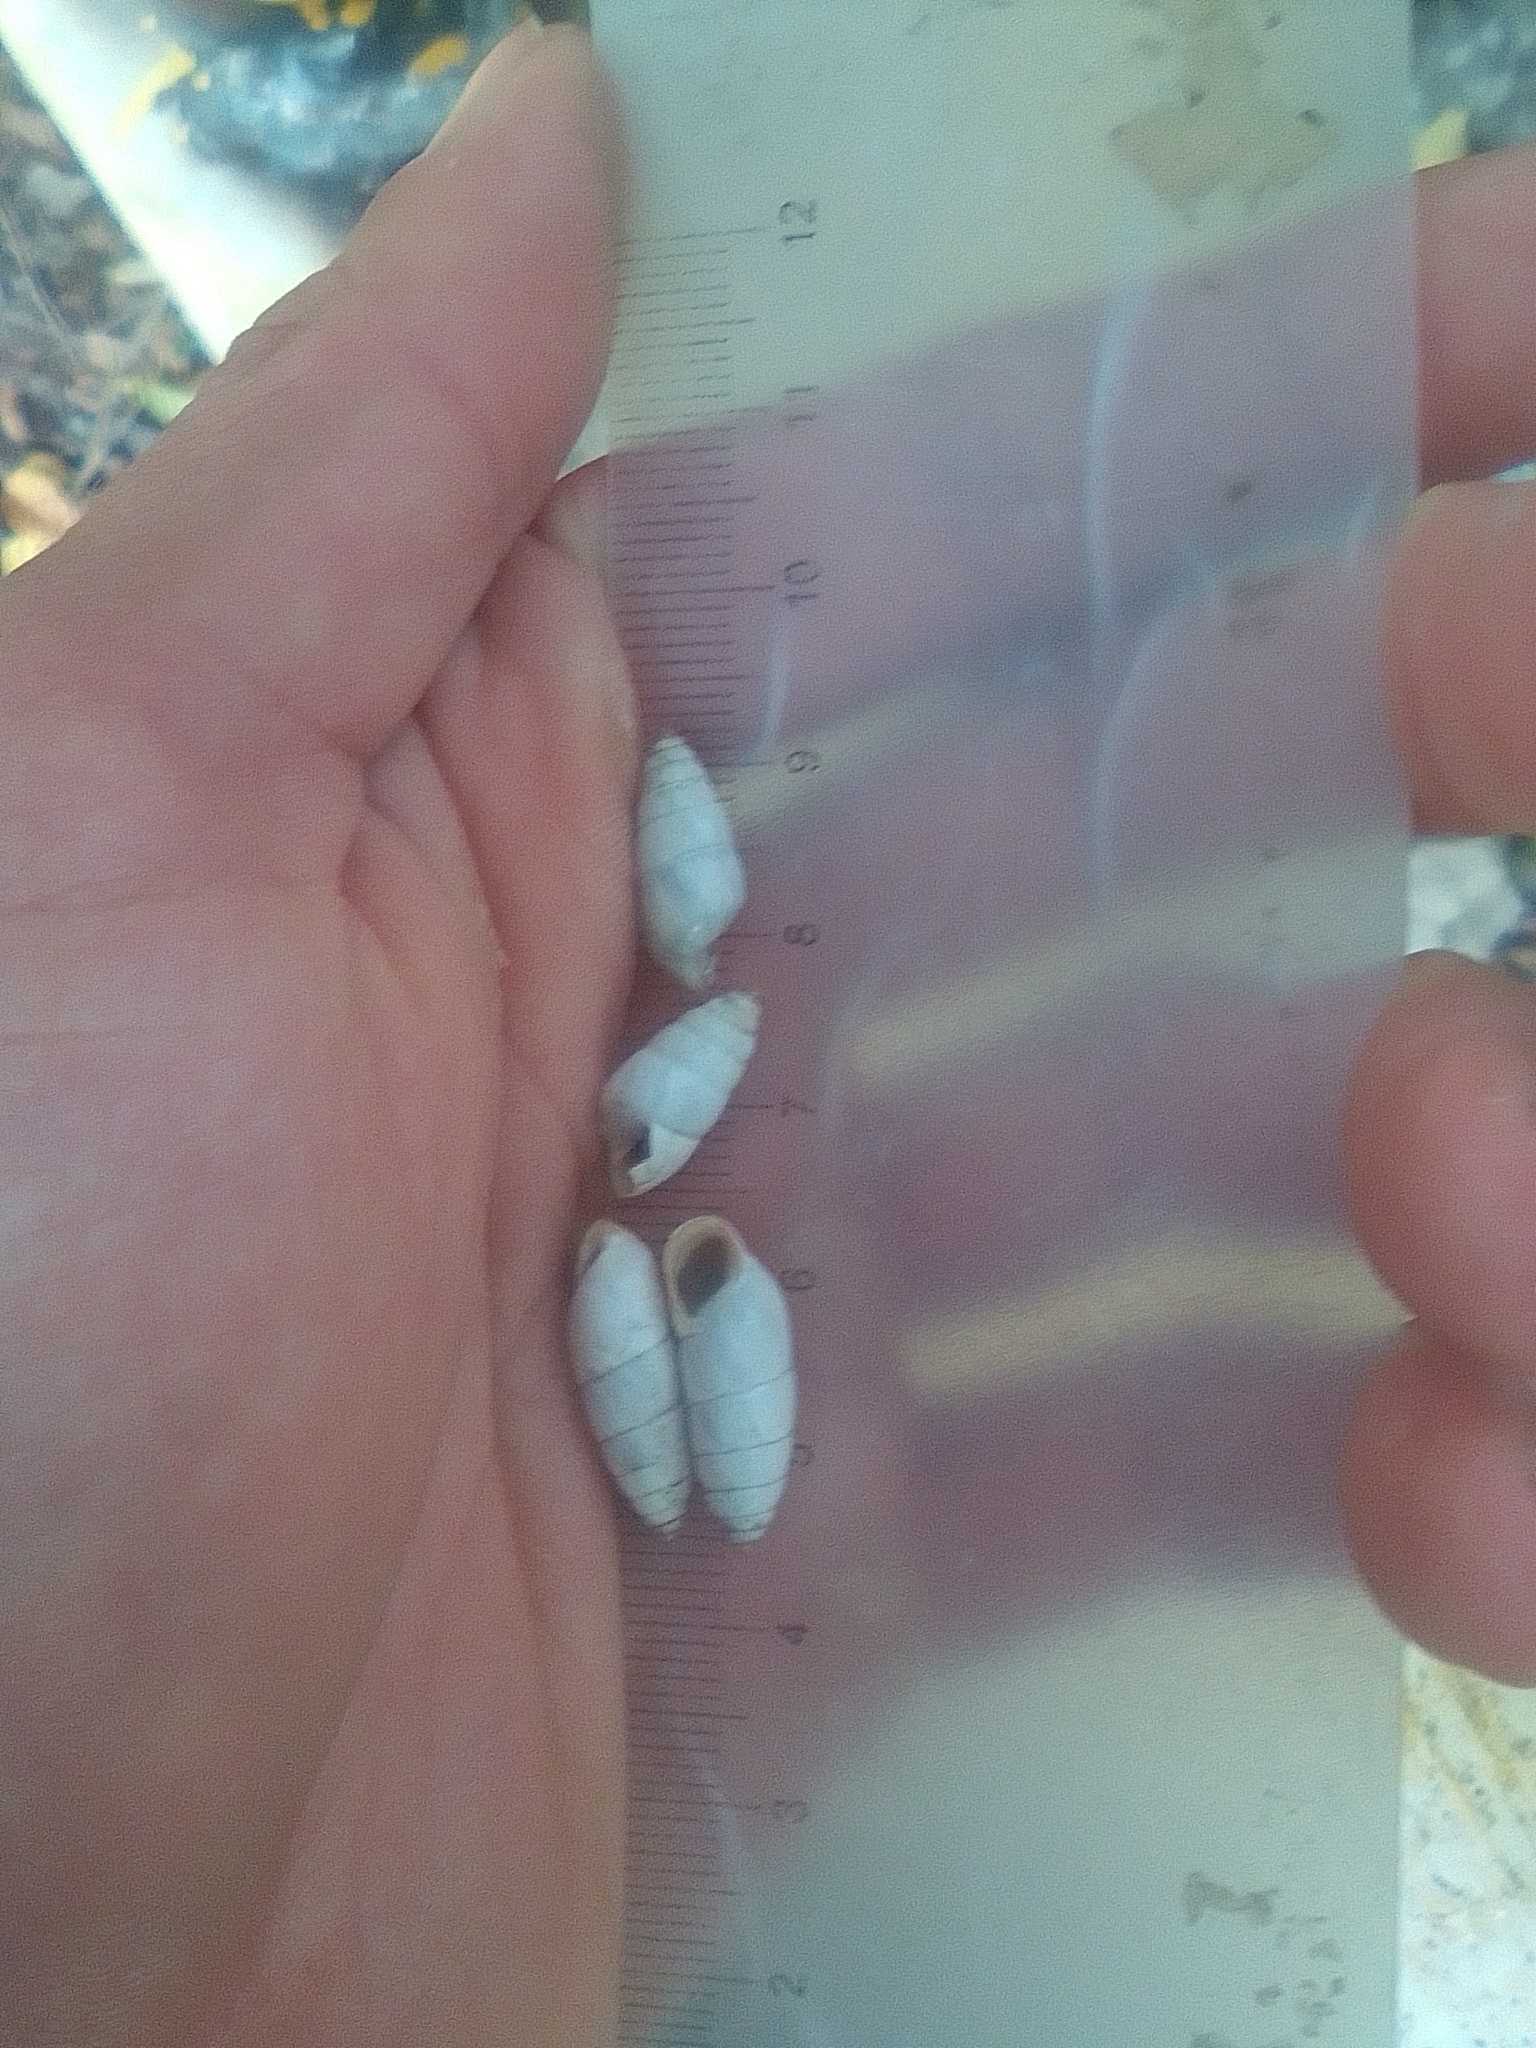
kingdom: Animalia
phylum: Mollusca
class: Gastropoda
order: Stylommatophora
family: Enidae
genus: Brephulopsis
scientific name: Brephulopsis cylindrica
